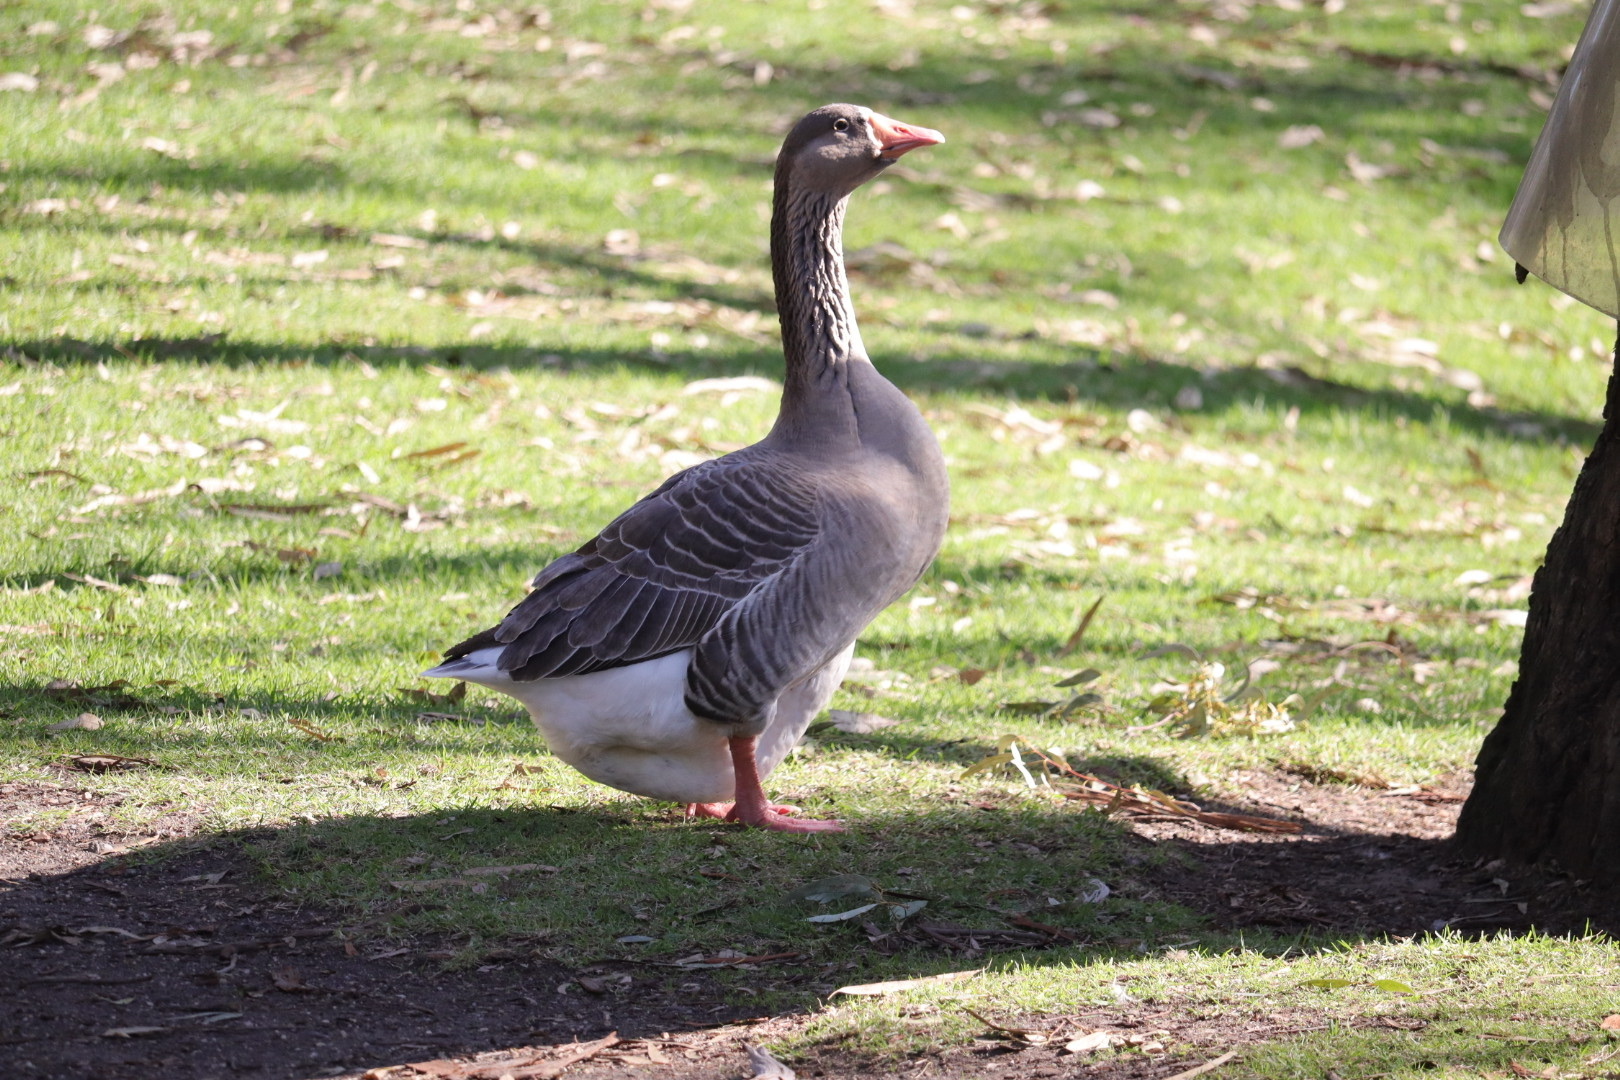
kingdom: Animalia
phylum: Chordata
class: Aves
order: Anseriformes
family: Anatidae
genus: Anser
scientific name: Anser anser
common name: Greylag goose
